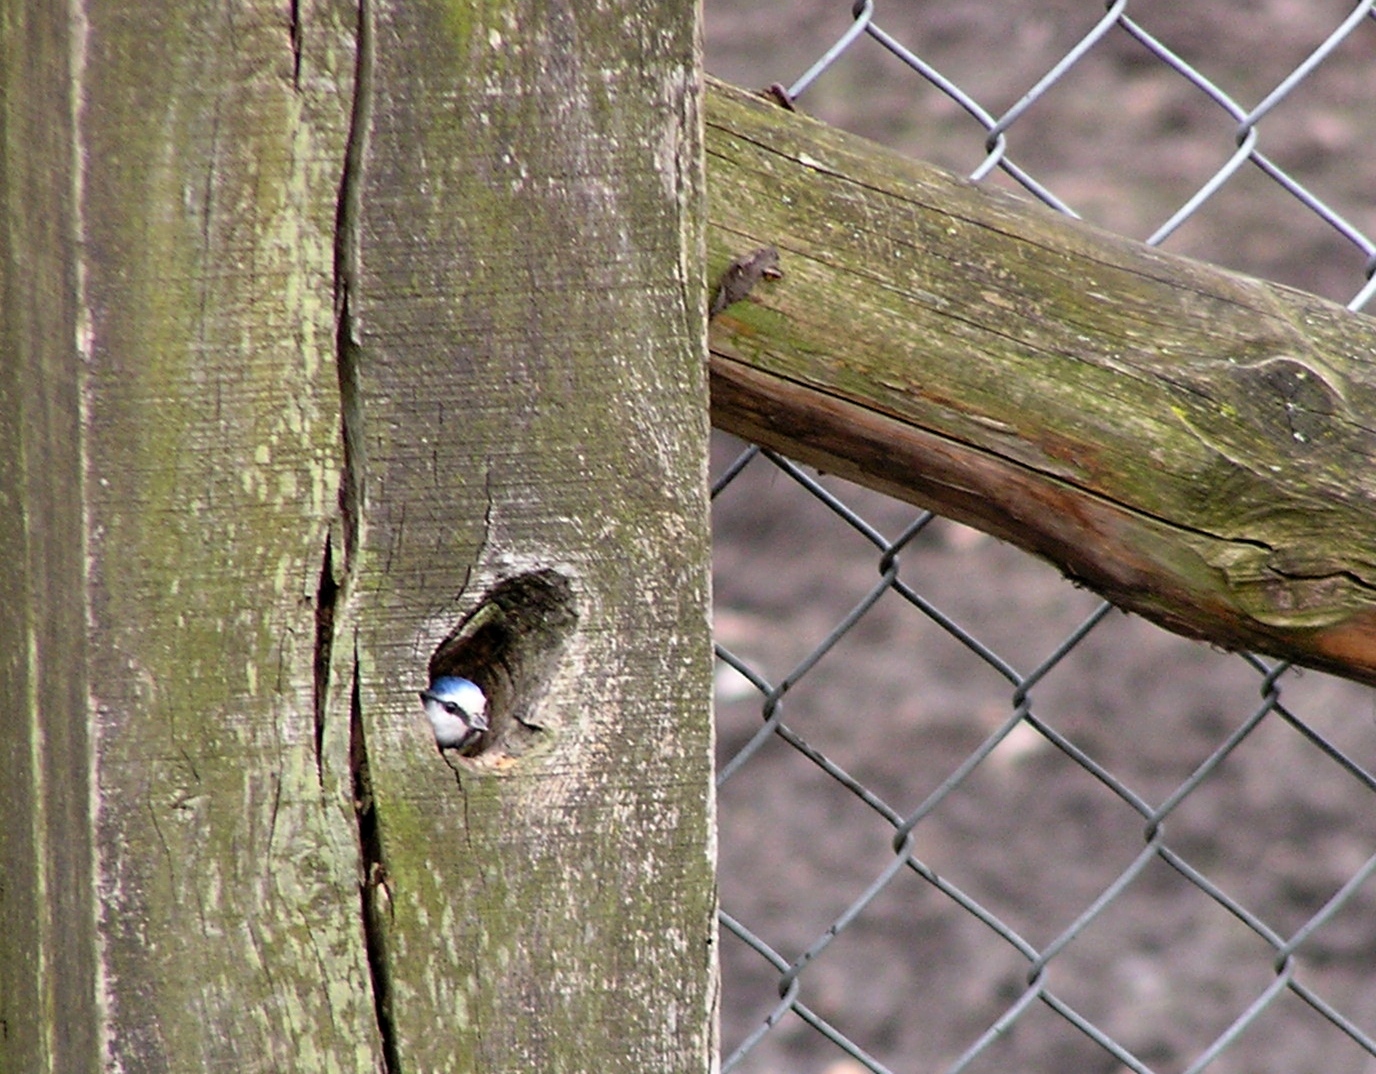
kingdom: Animalia
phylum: Chordata
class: Aves
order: Passeriformes
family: Paridae
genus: Cyanistes
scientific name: Cyanistes caeruleus
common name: Eurasian blue tit
